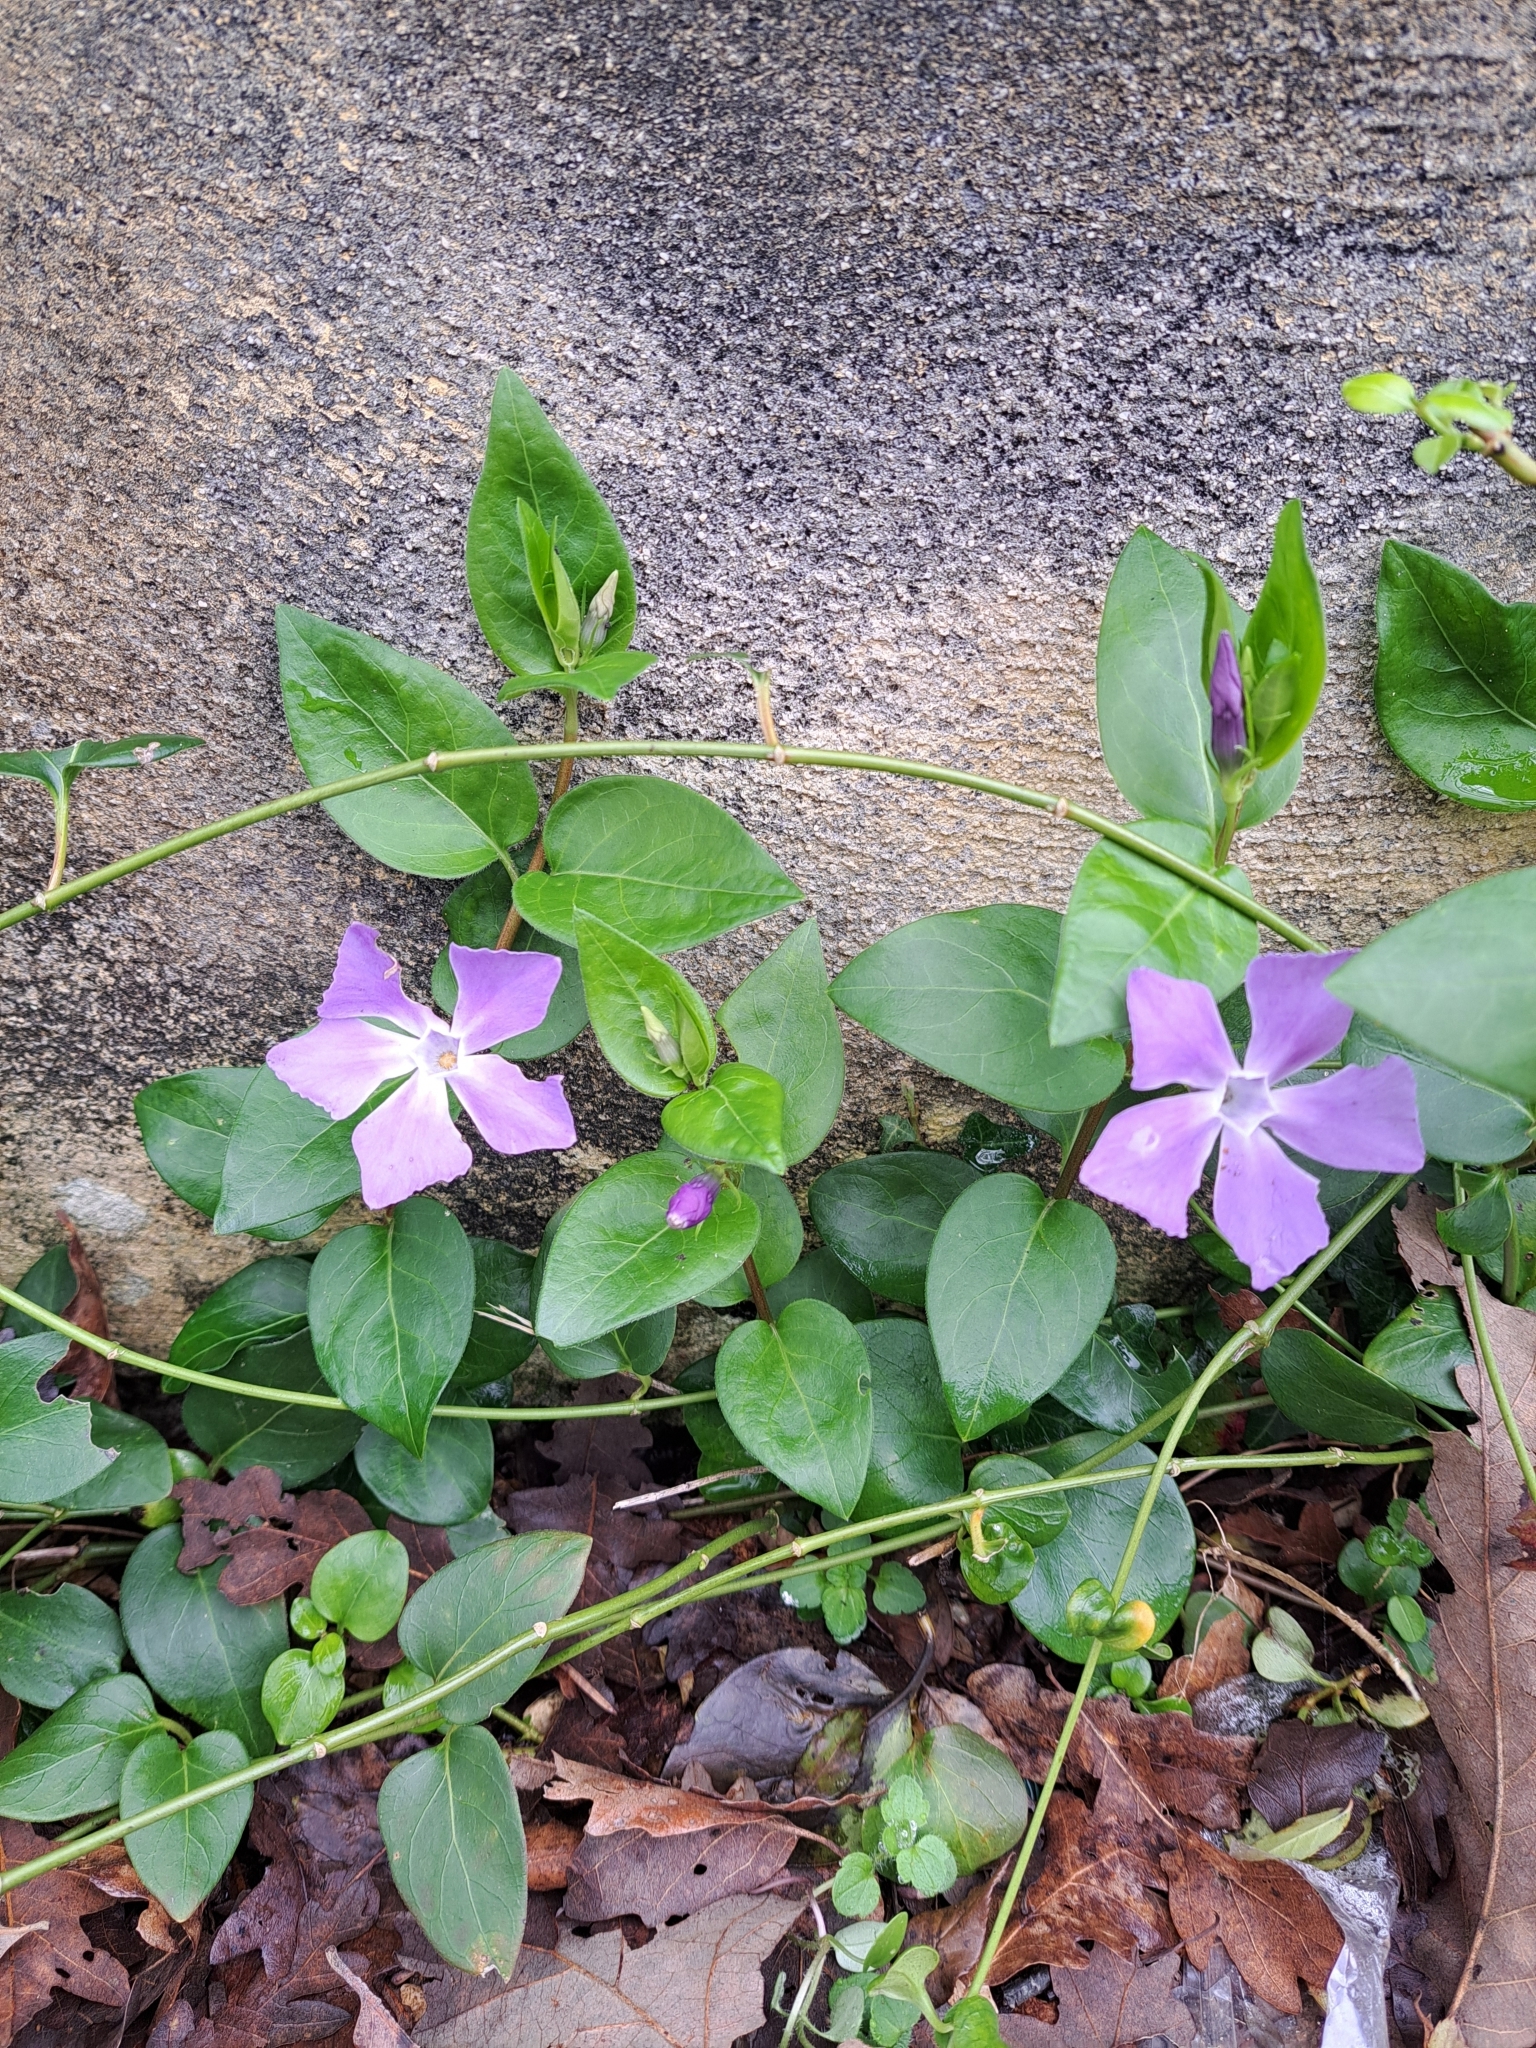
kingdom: Plantae
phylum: Tracheophyta
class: Magnoliopsida
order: Gentianales
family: Apocynaceae
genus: Vinca
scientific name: Vinca major
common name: Greater periwinkle
